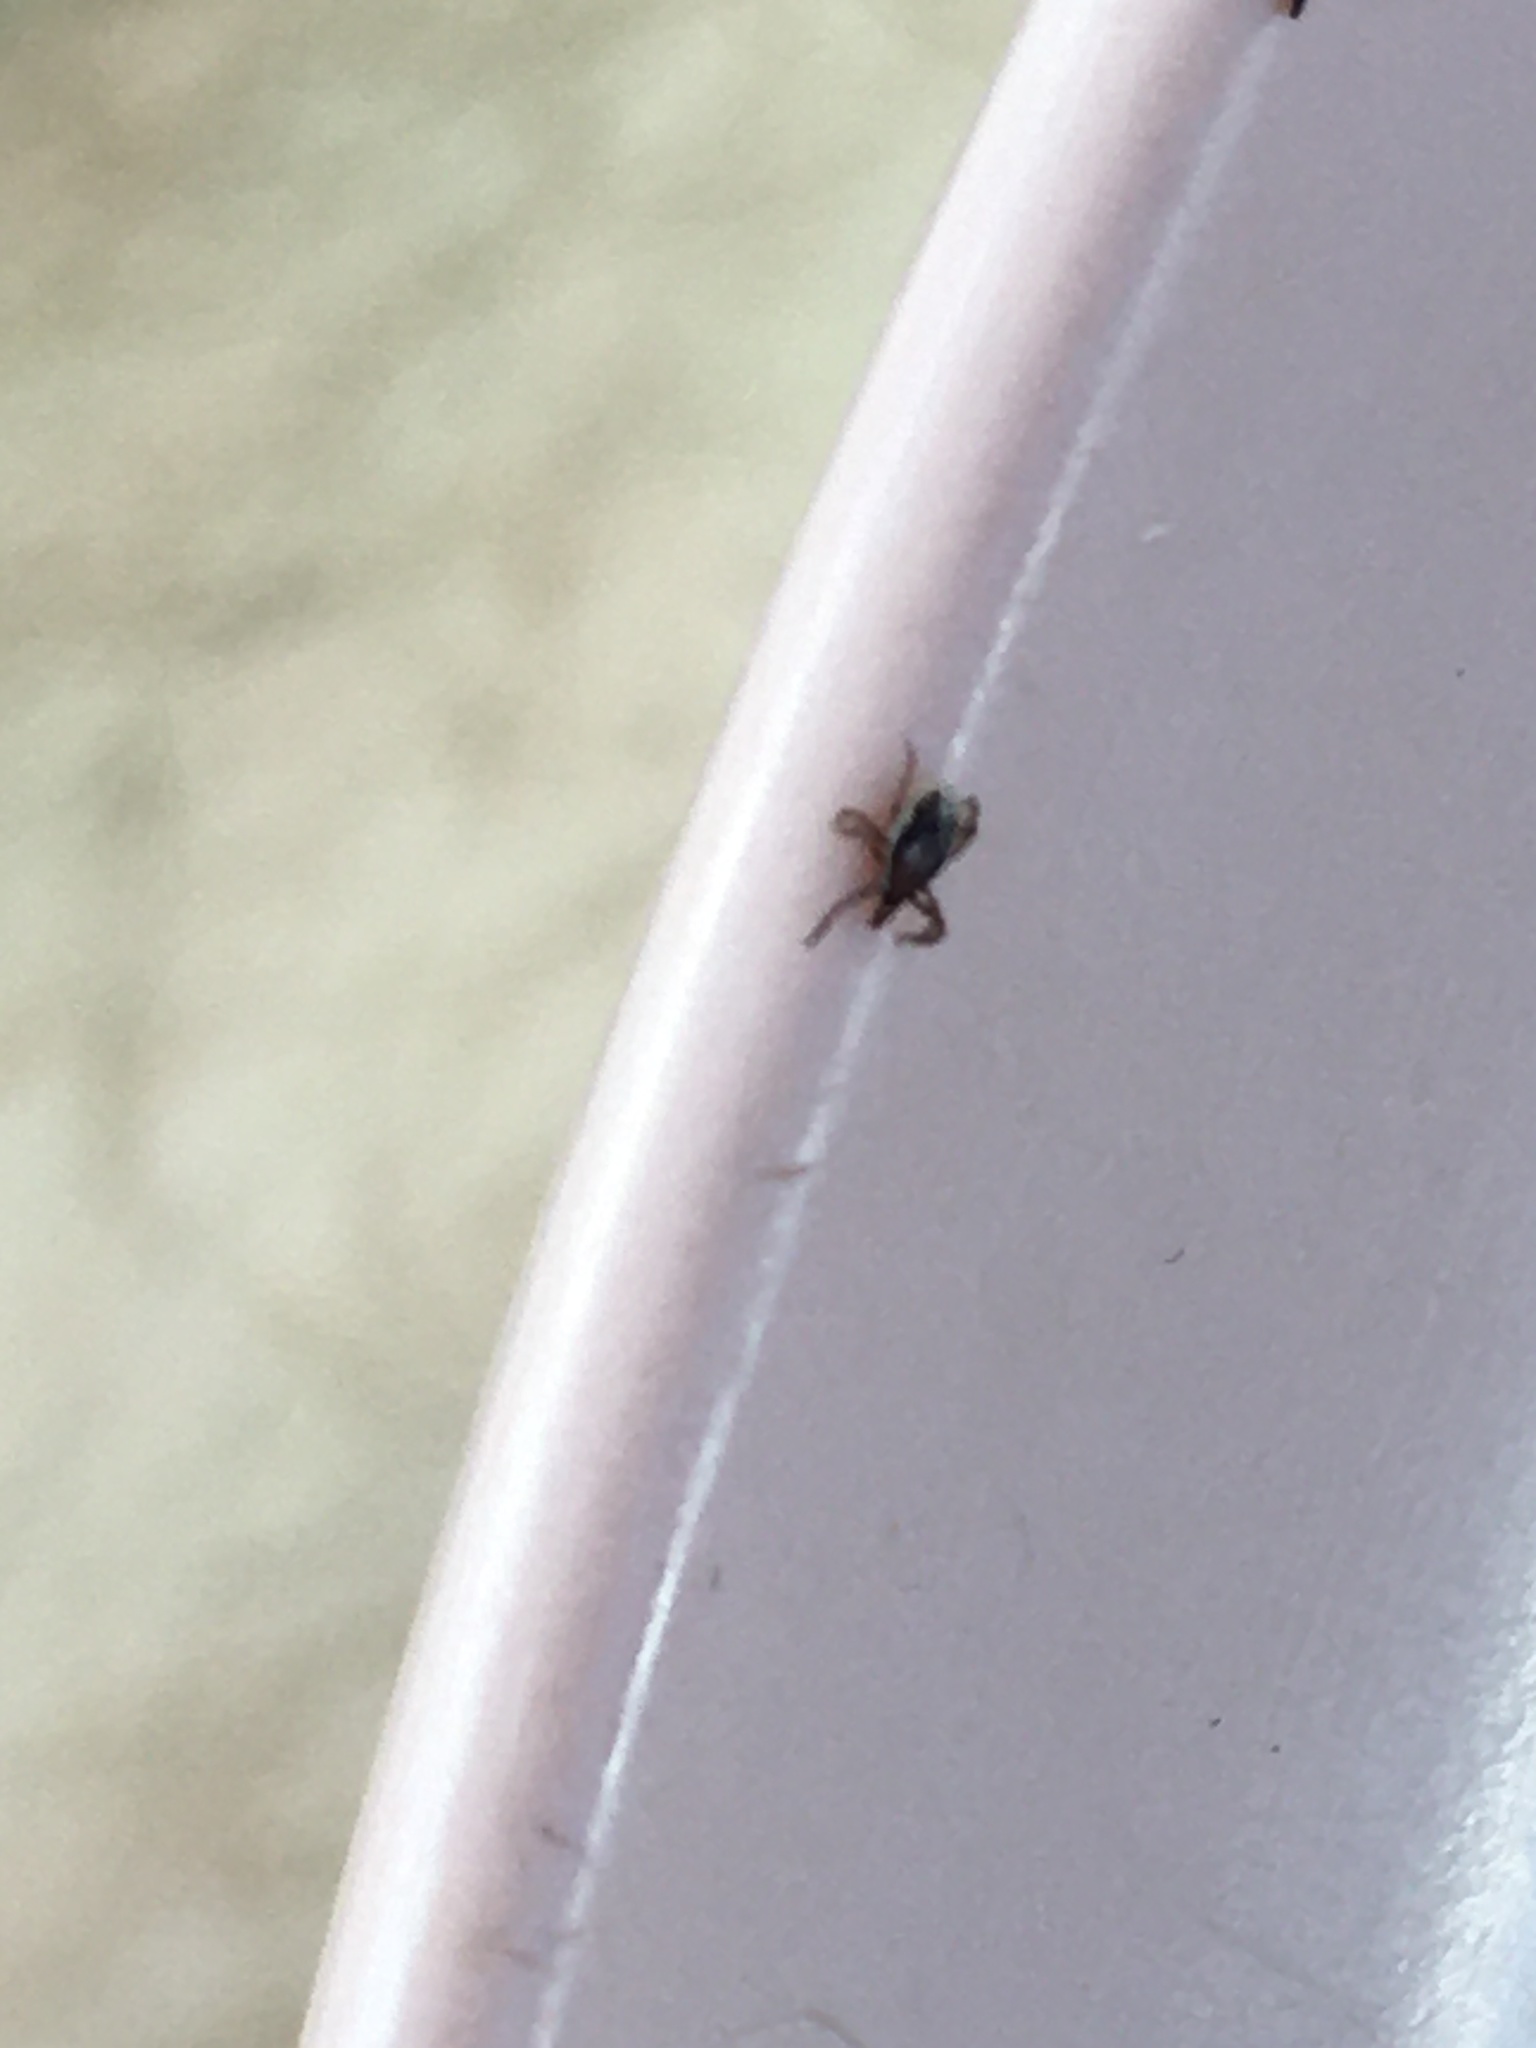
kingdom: Animalia
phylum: Arthropoda
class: Arachnida
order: Ixodida
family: Ixodidae
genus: Ixodes
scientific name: Ixodes scapularis
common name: Black legged tick
